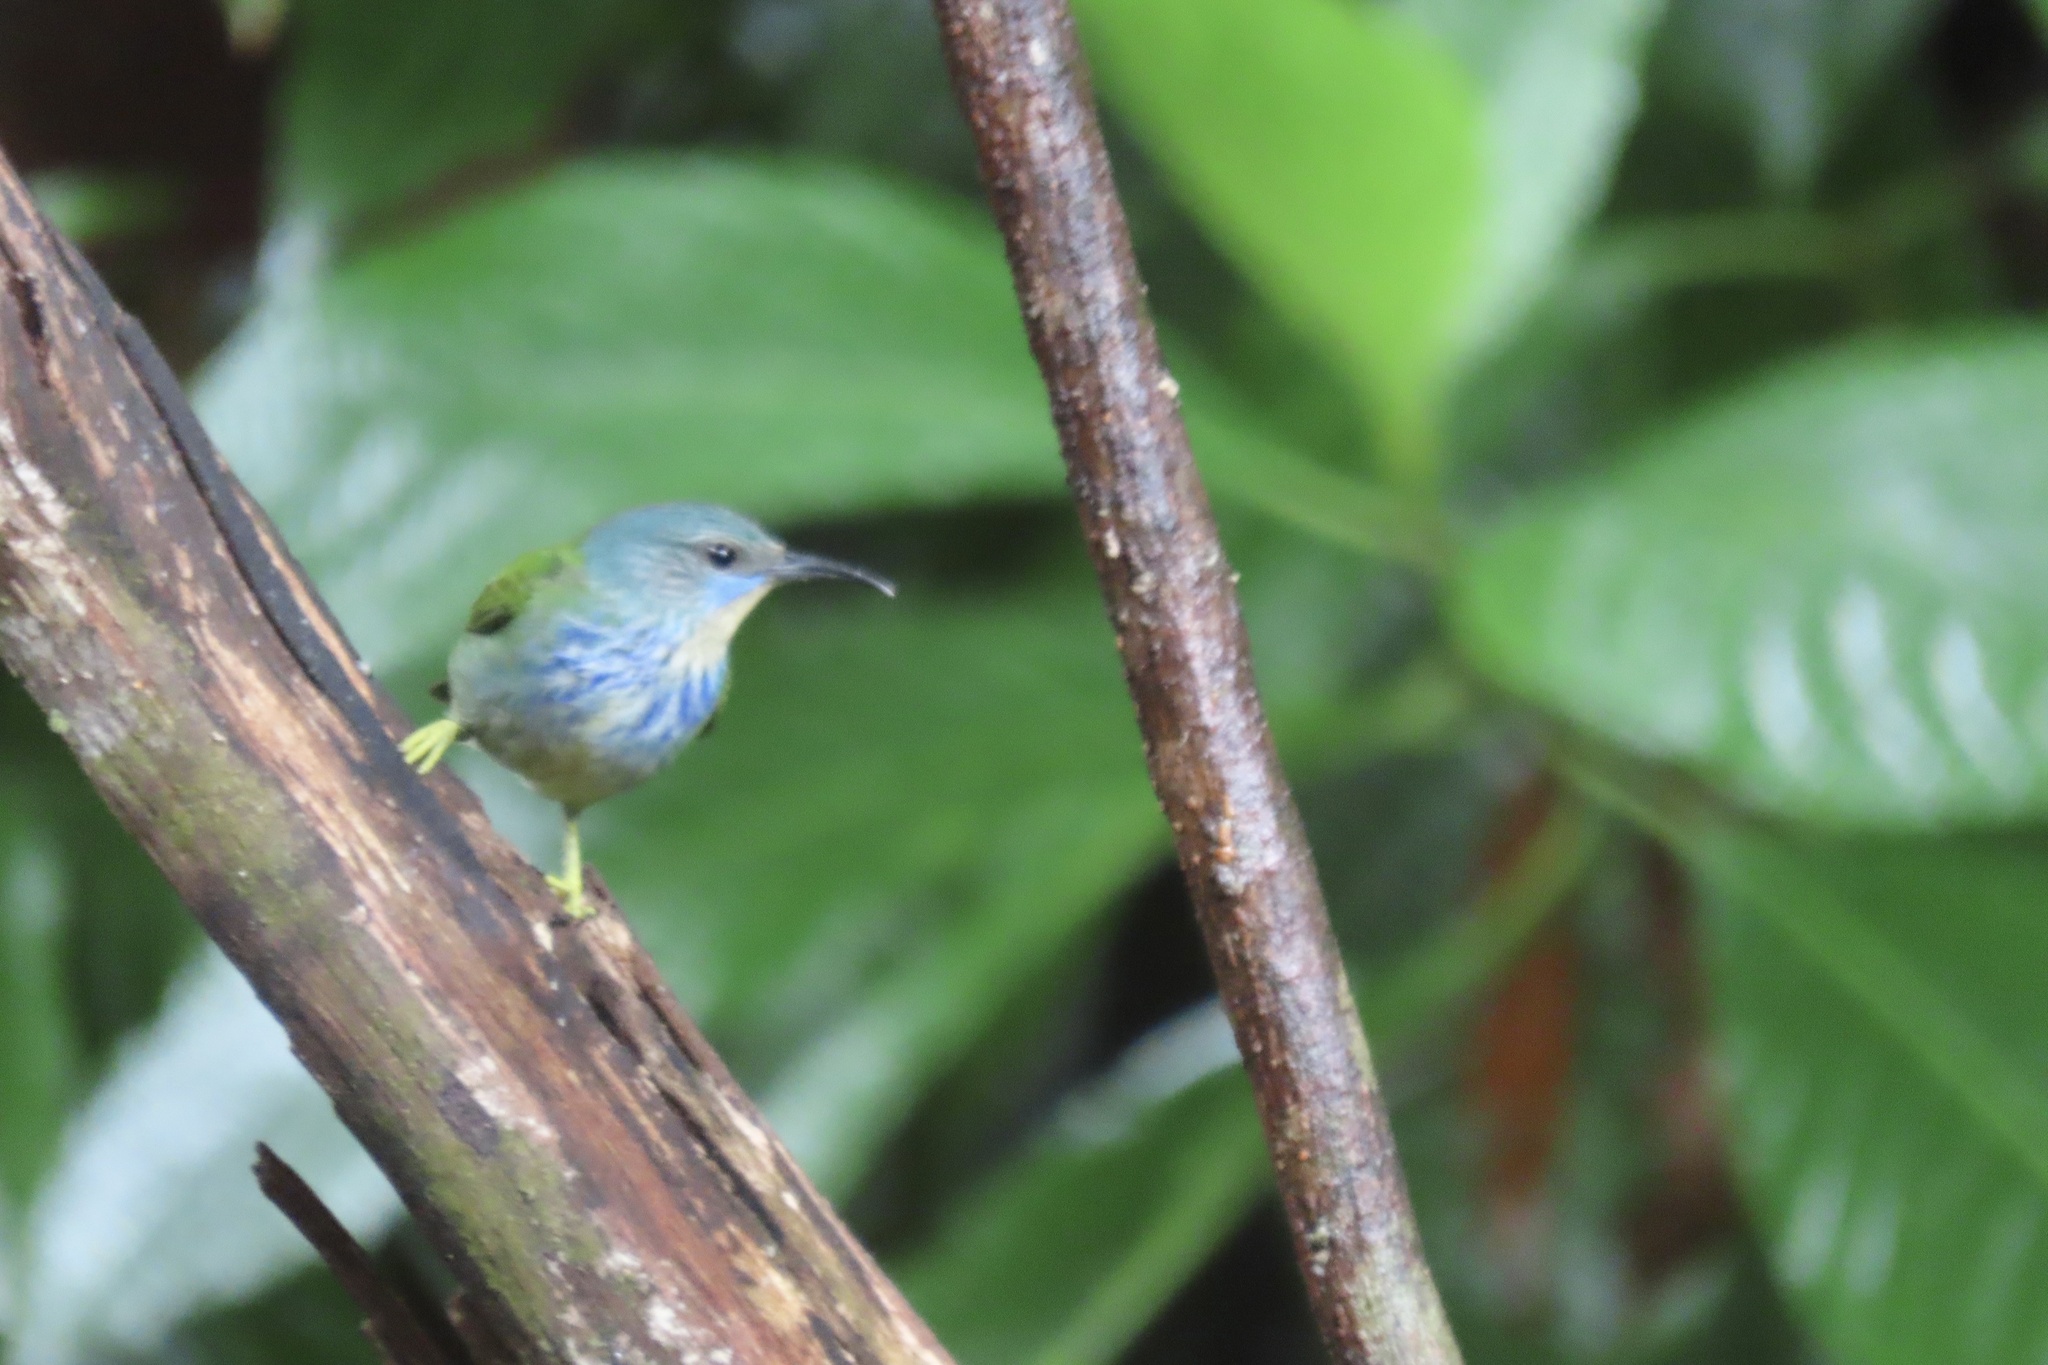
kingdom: Animalia
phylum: Chordata
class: Aves
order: Passeriformes
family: Thraupidae
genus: Cyanerpes
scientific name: Cyanerpes lucidus
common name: Shining honeycreeper
